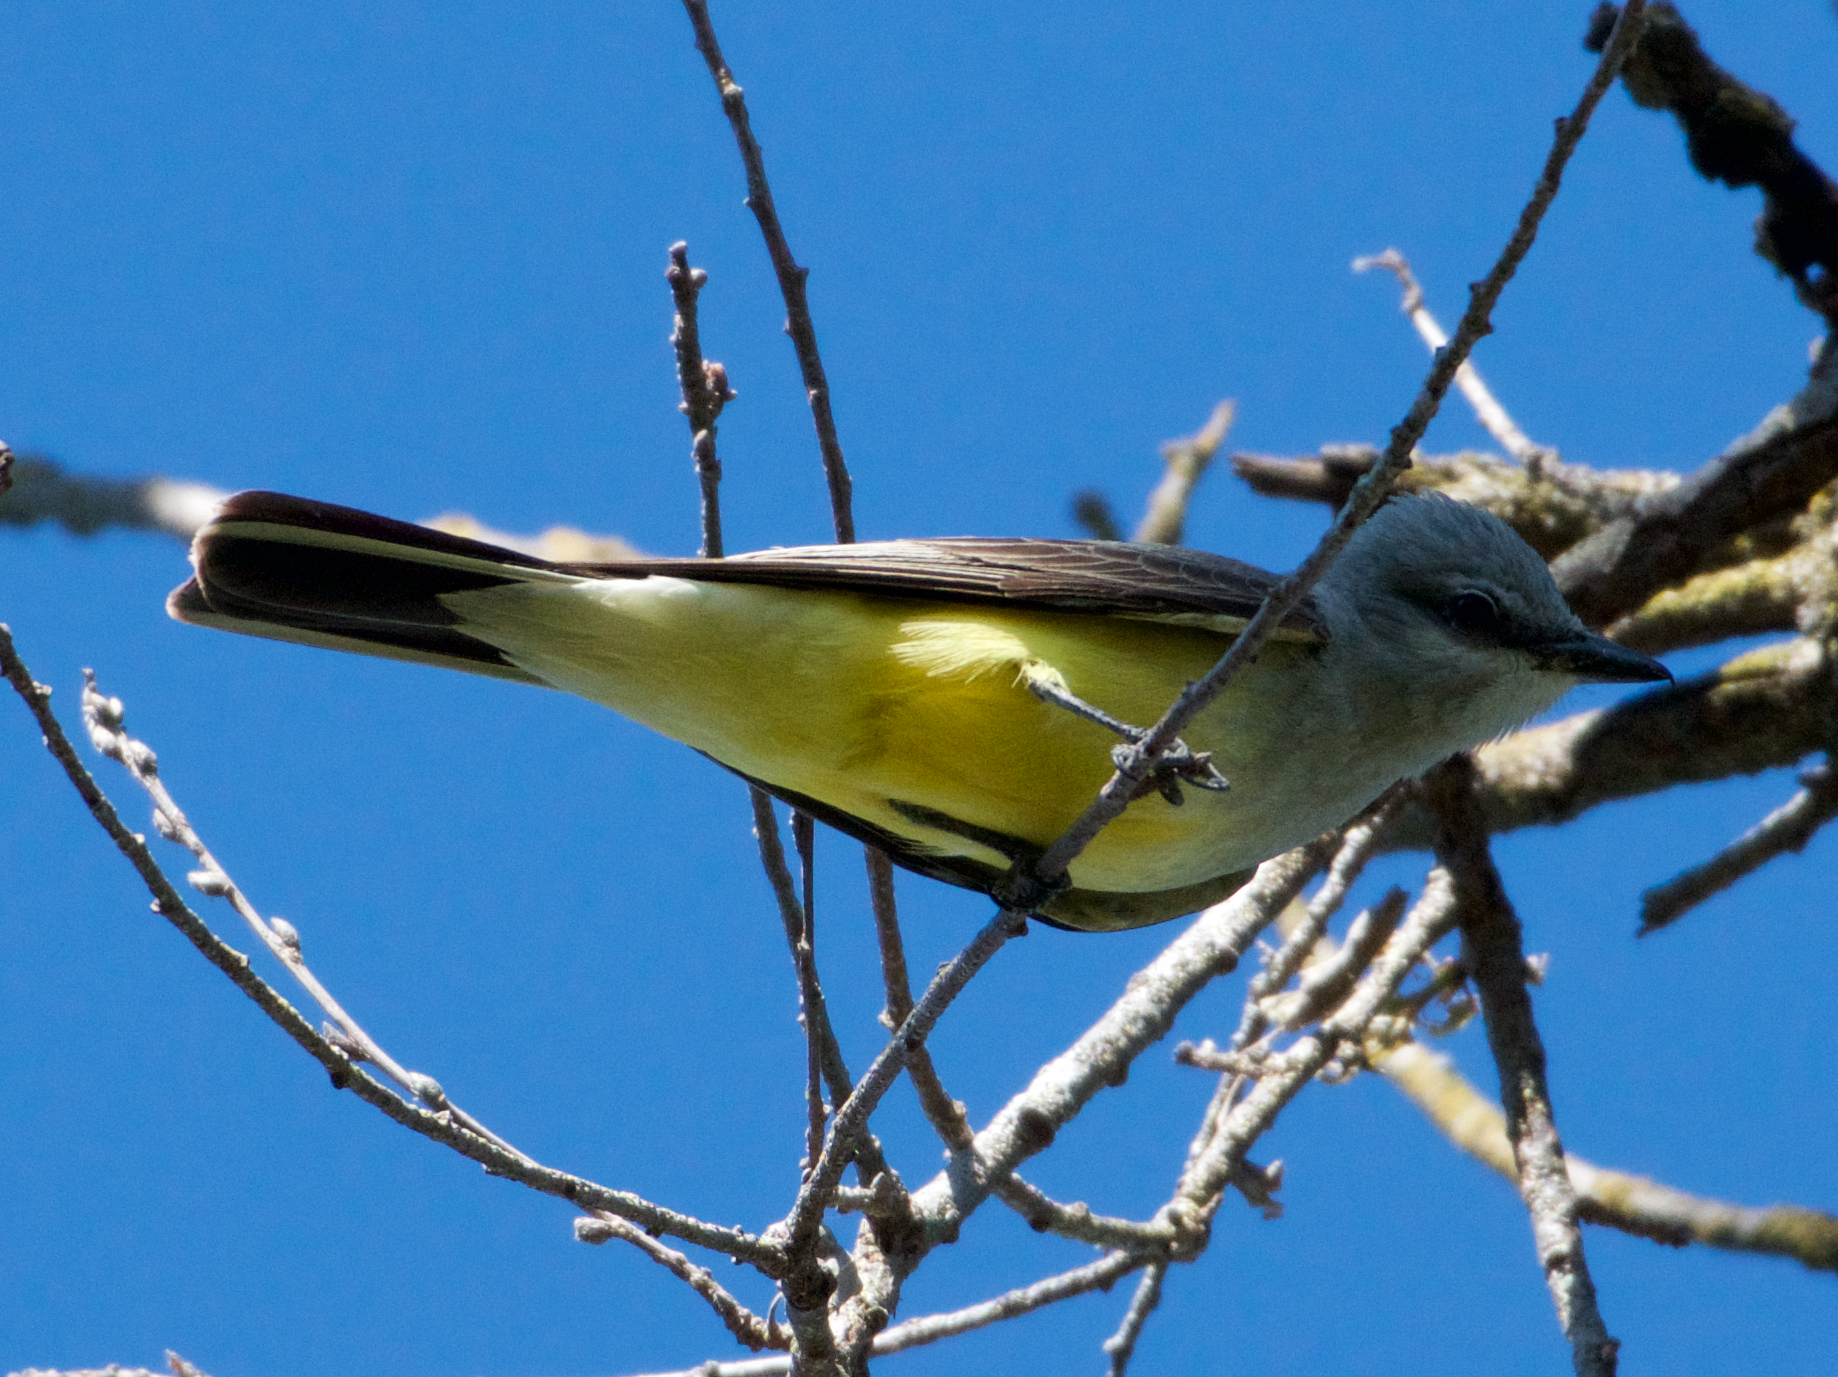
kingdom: Animalia
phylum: Chordata
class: Aves
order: Passeriformes
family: Tyrannidae
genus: Tyrannus
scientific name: Tyrannus verticalis
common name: Western kingbird
